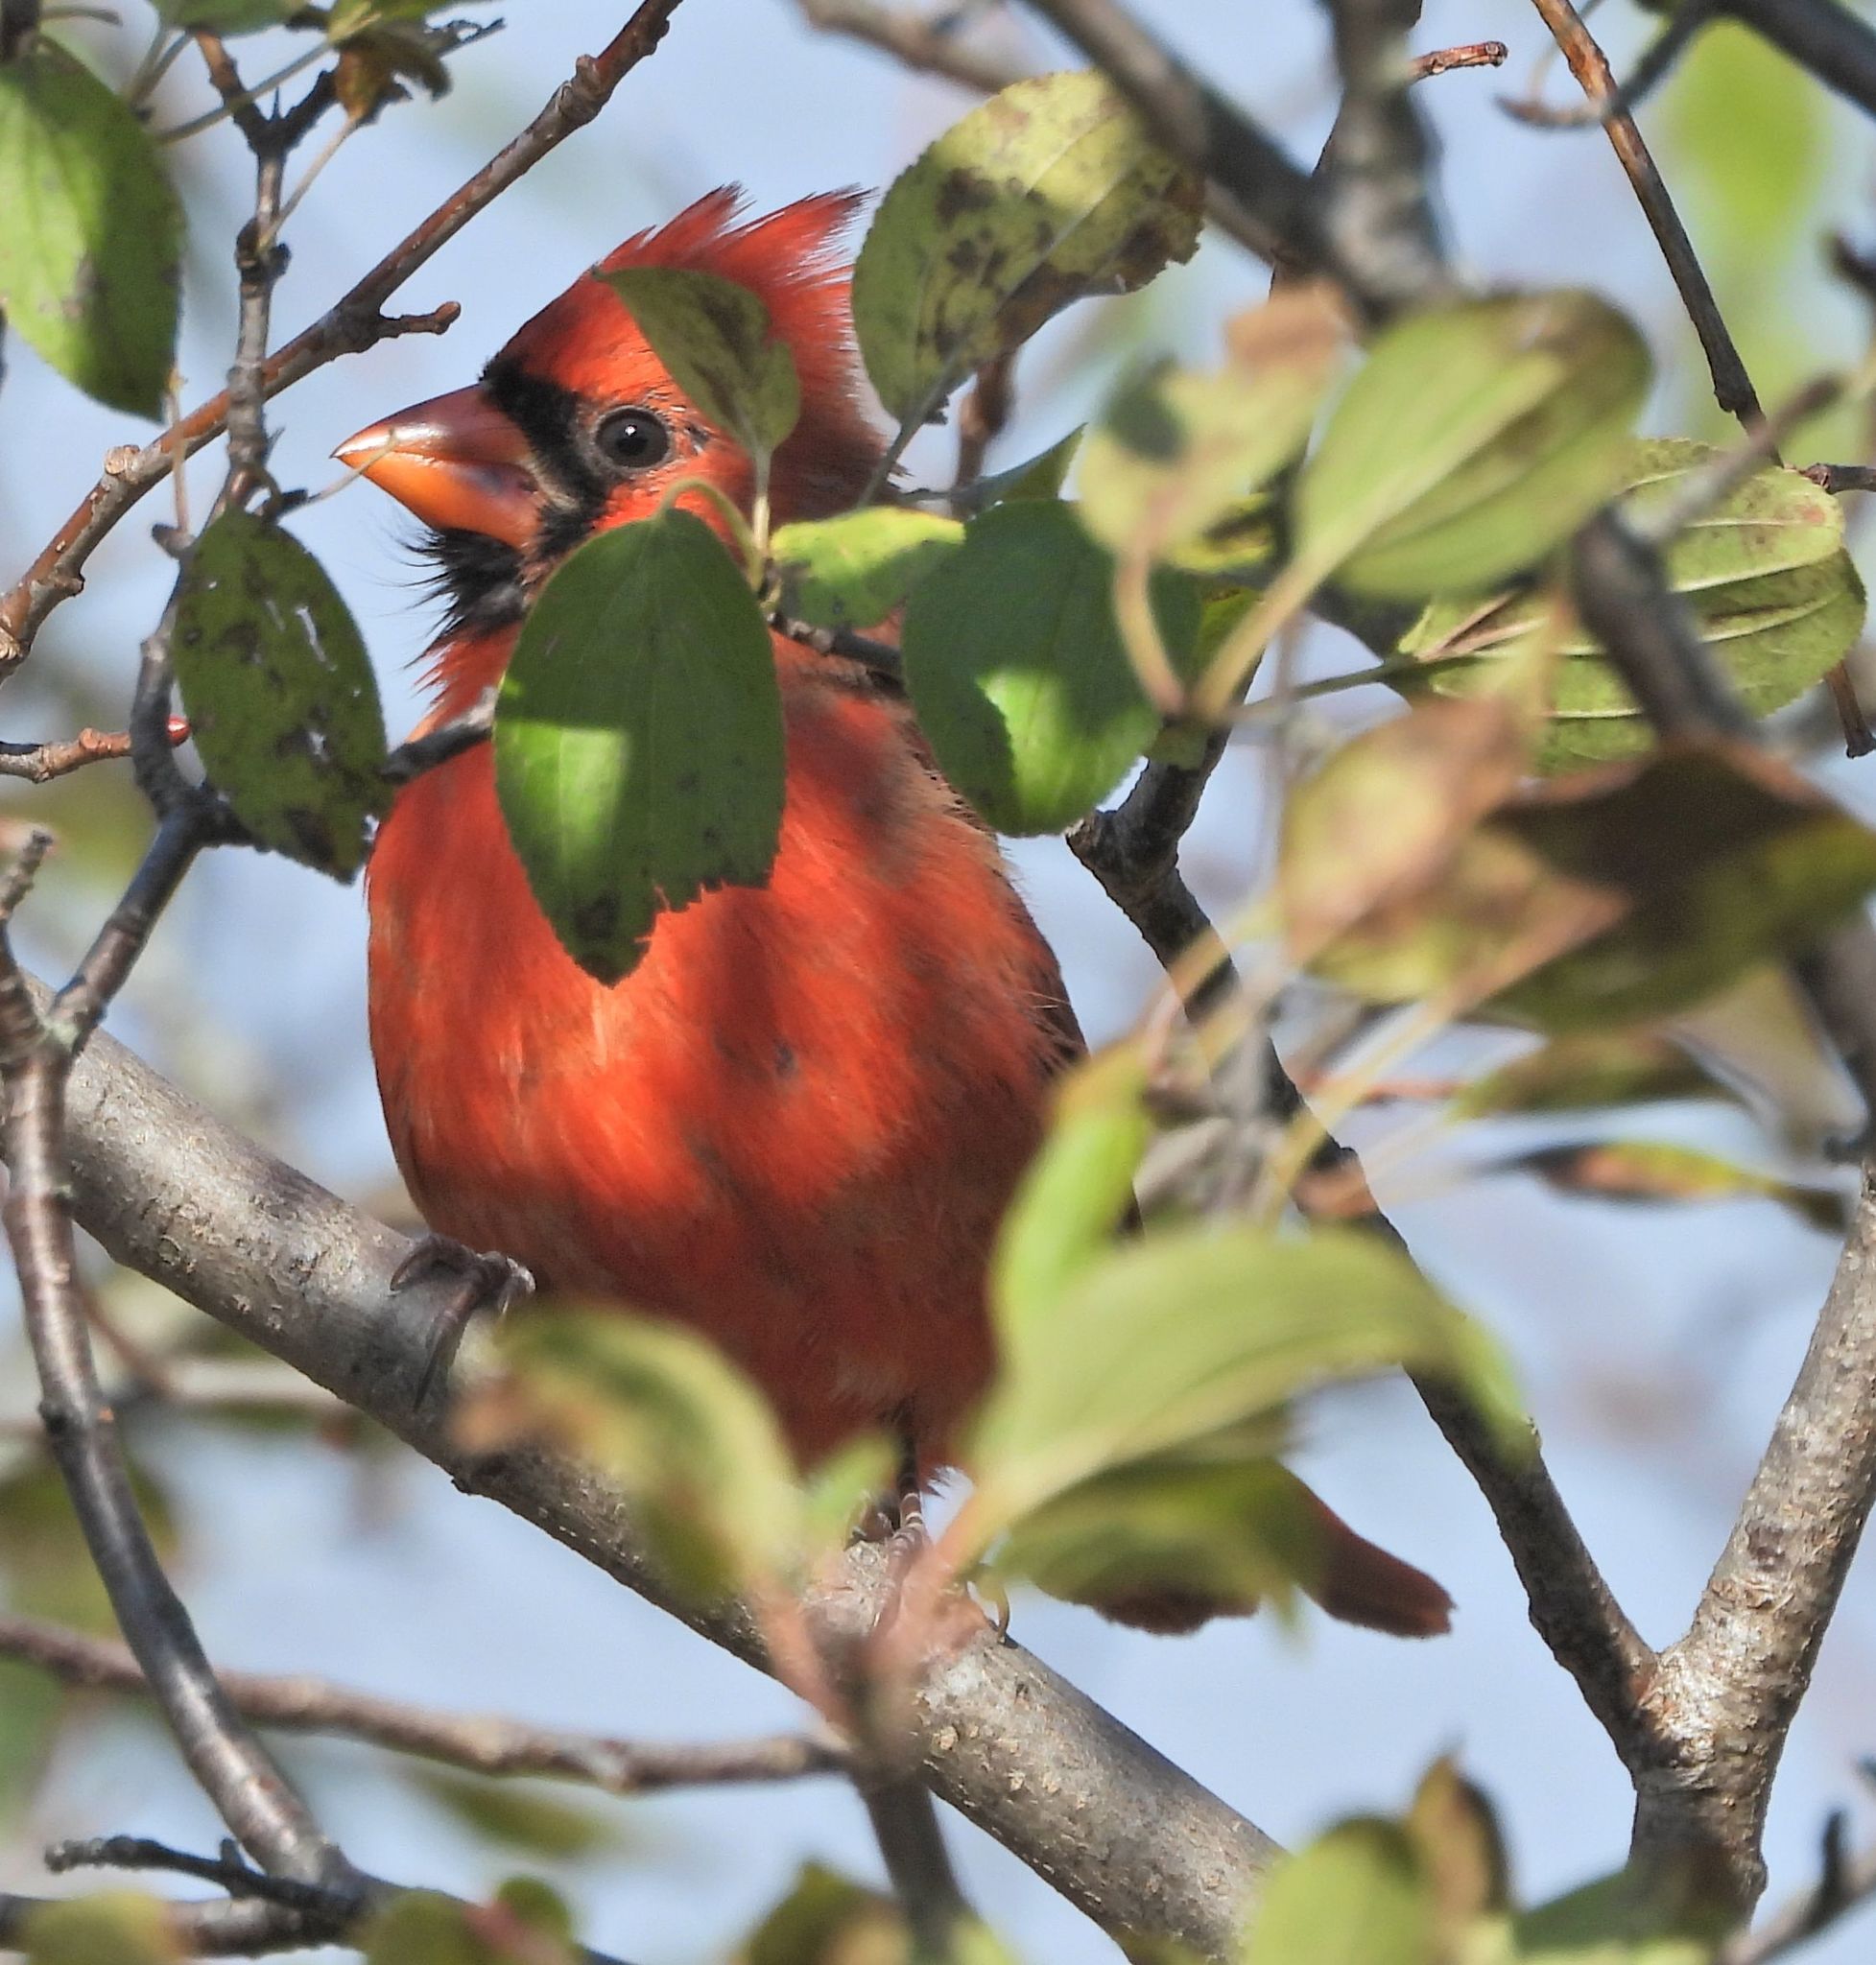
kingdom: Animalia
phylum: Chordata
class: Aves
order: Passeriformes
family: Cardinalidae
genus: Cardinalis
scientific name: Cardinalis cardinalis
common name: Northern cardinal
